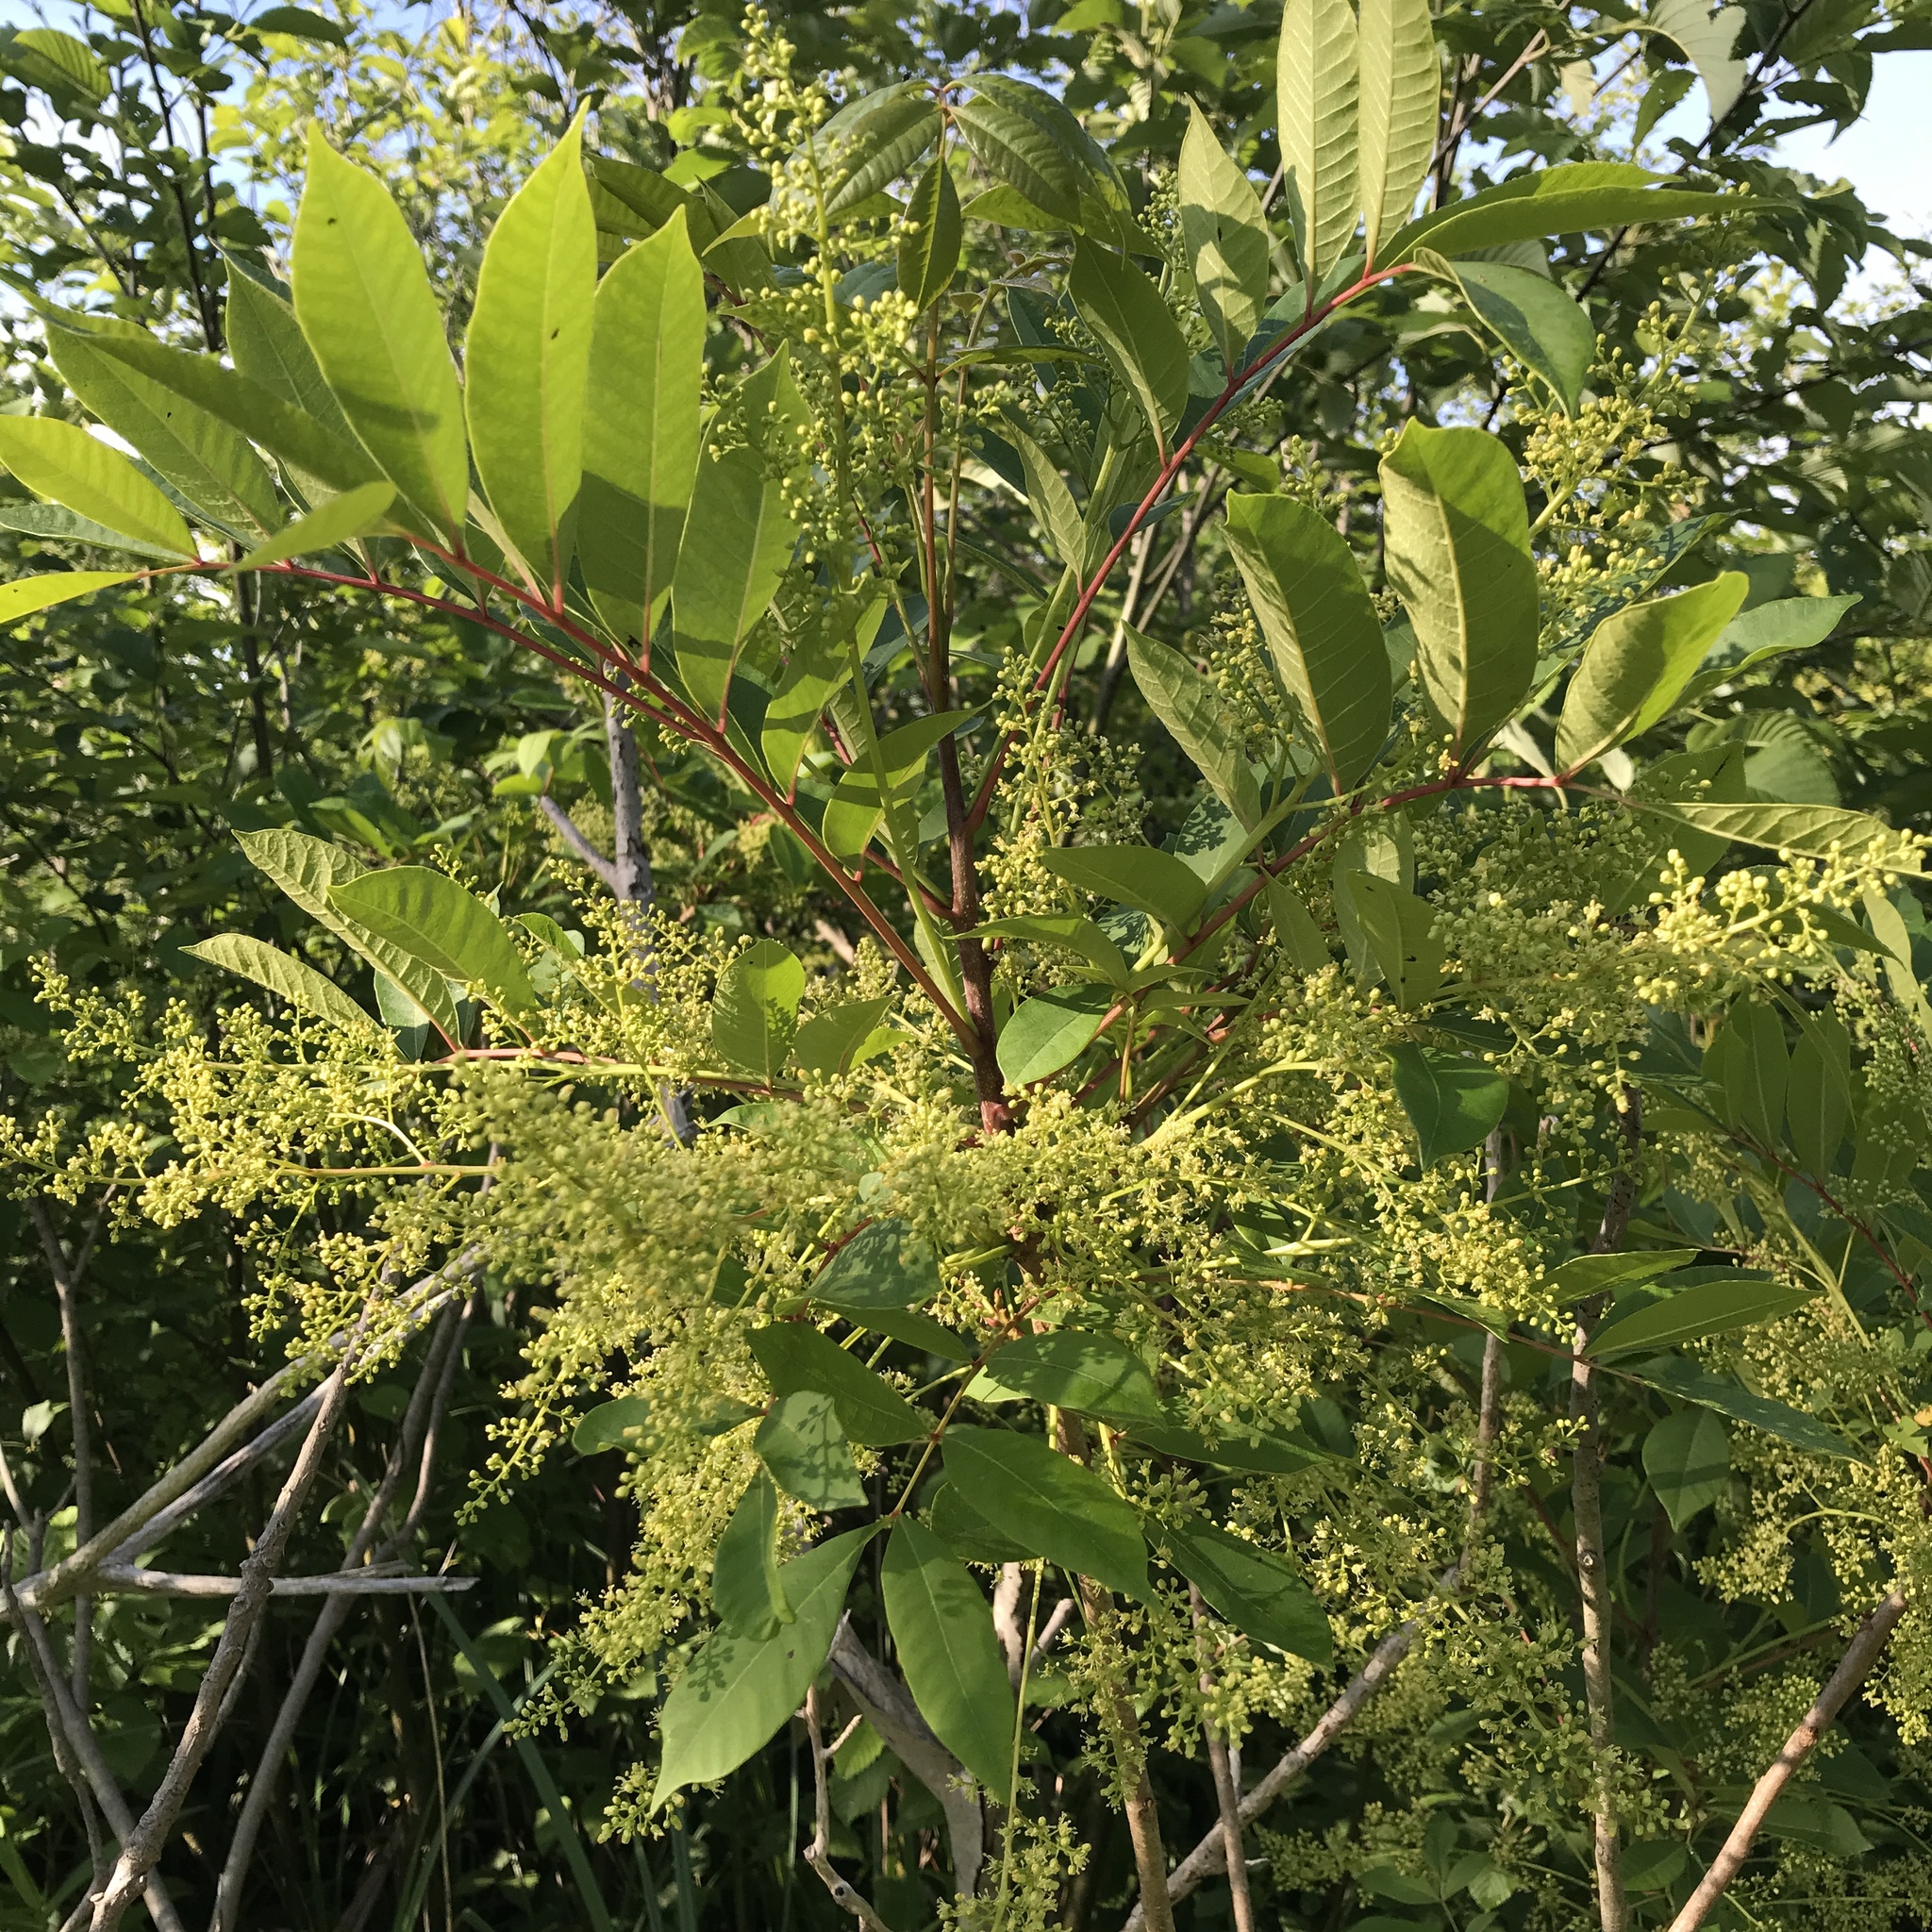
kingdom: Plantae
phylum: Tracheophyta
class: Magnoliopsida
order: Sapindales
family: Anacardiaceae
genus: Toxicodendron
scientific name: Toxicodendron vernix
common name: Poison sumac
